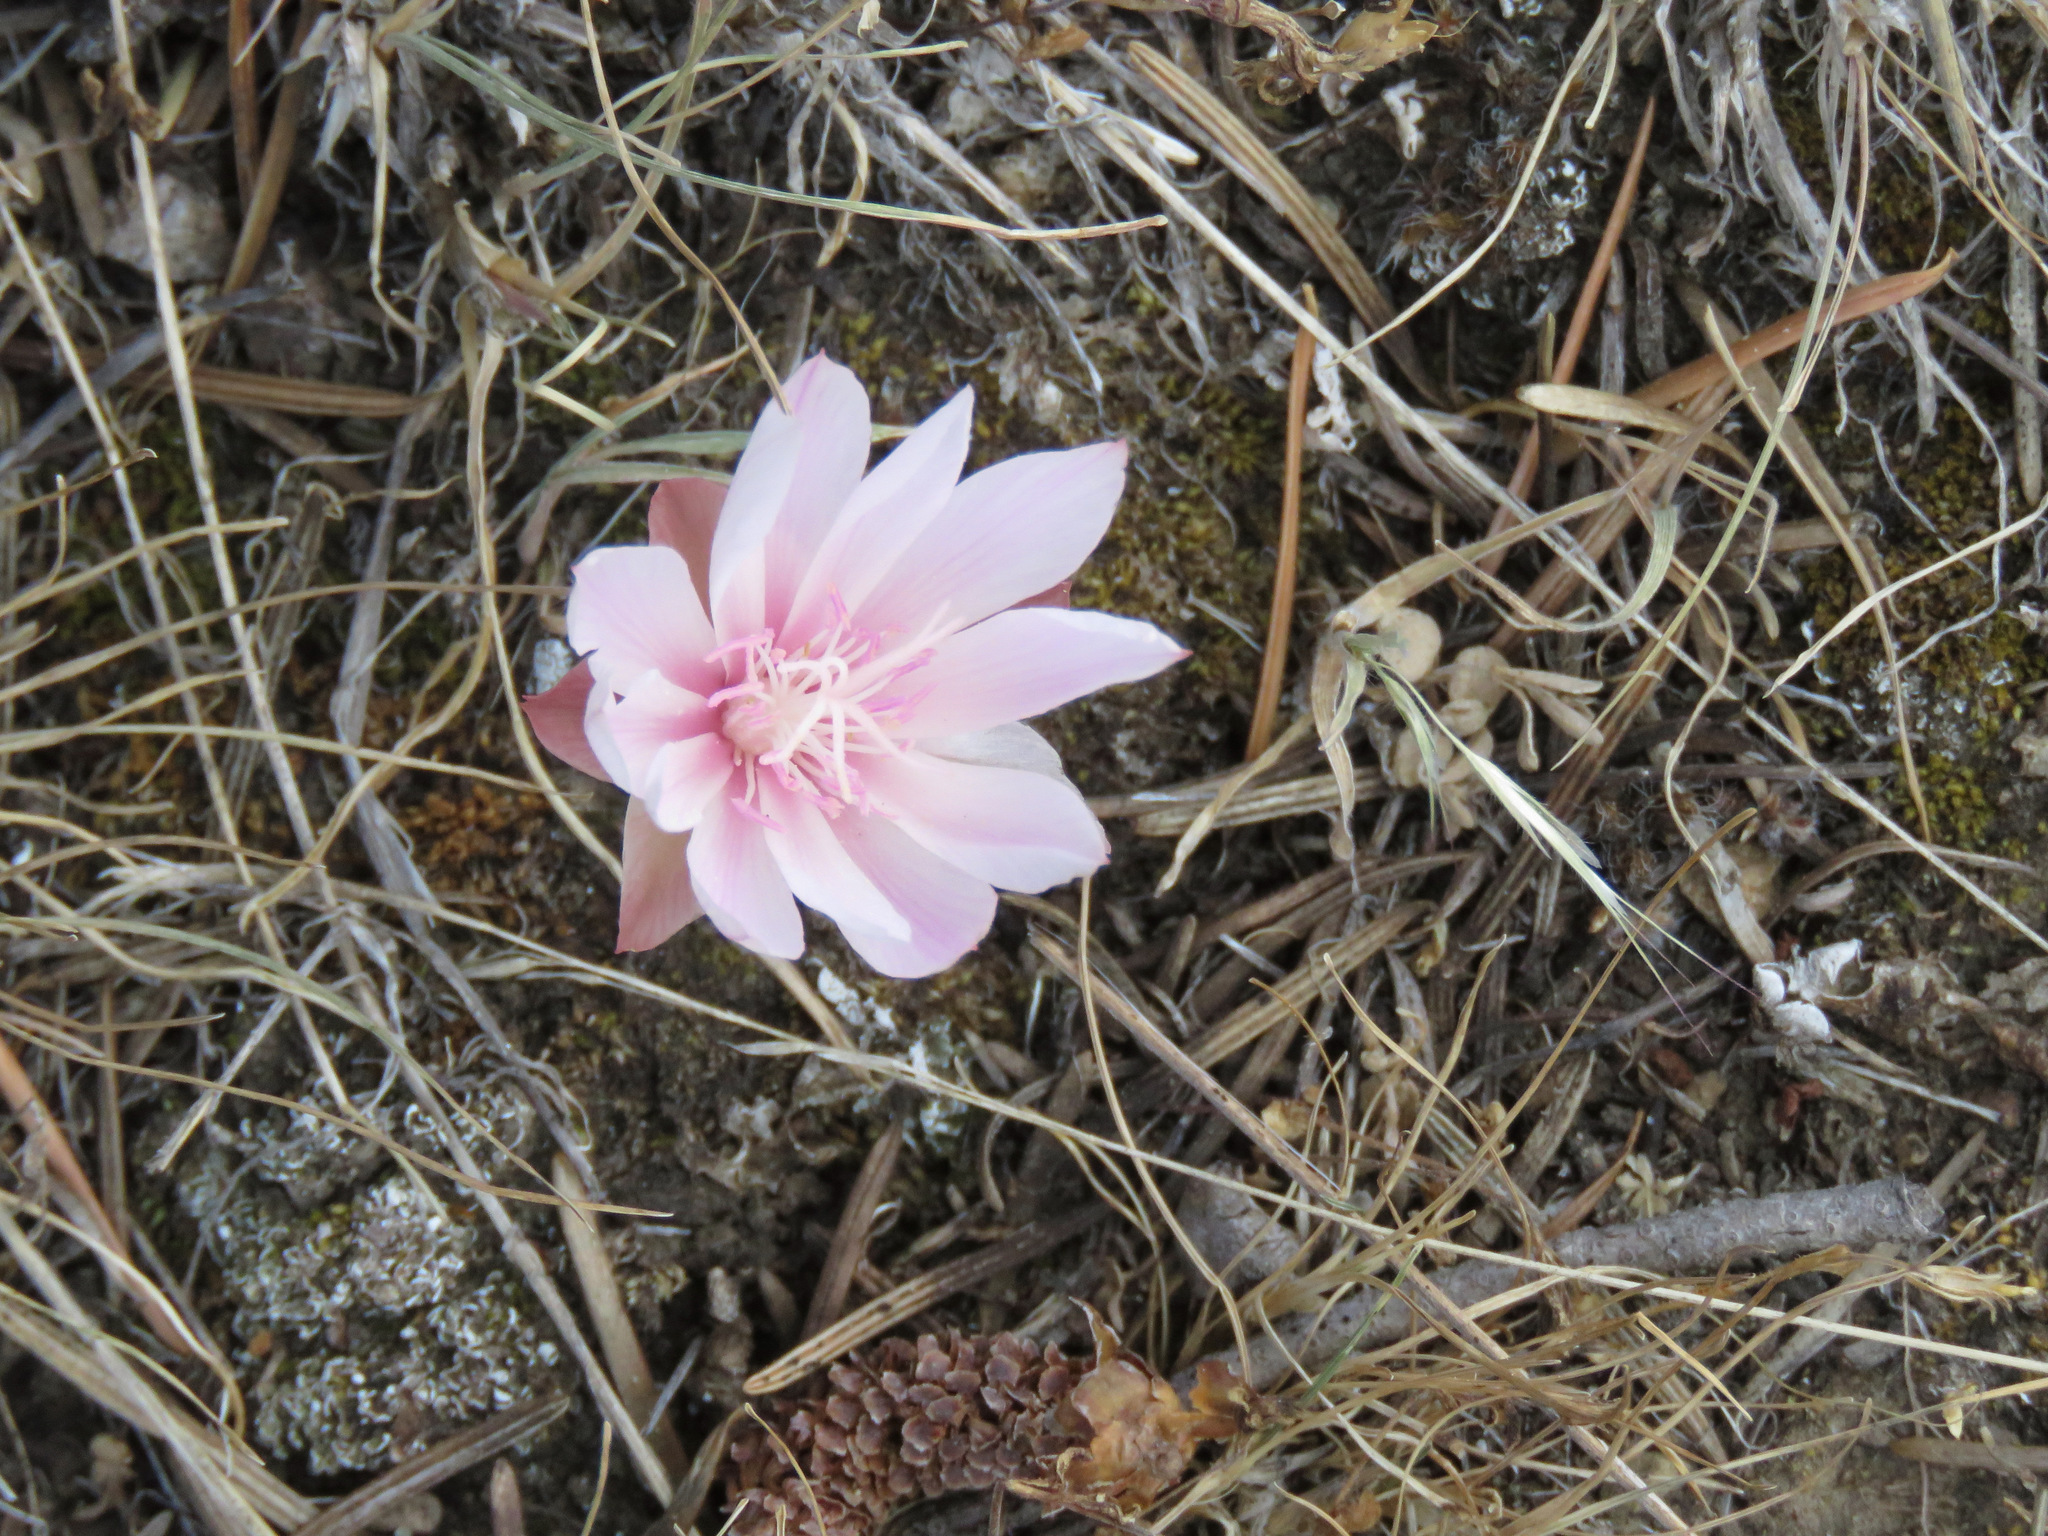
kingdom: Plantae
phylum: Tracheophyta
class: Magnoliopsida
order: Caryophyllales
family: Montiaceae
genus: Lewisia
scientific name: Lewisia rediviva
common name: Bitter-root
